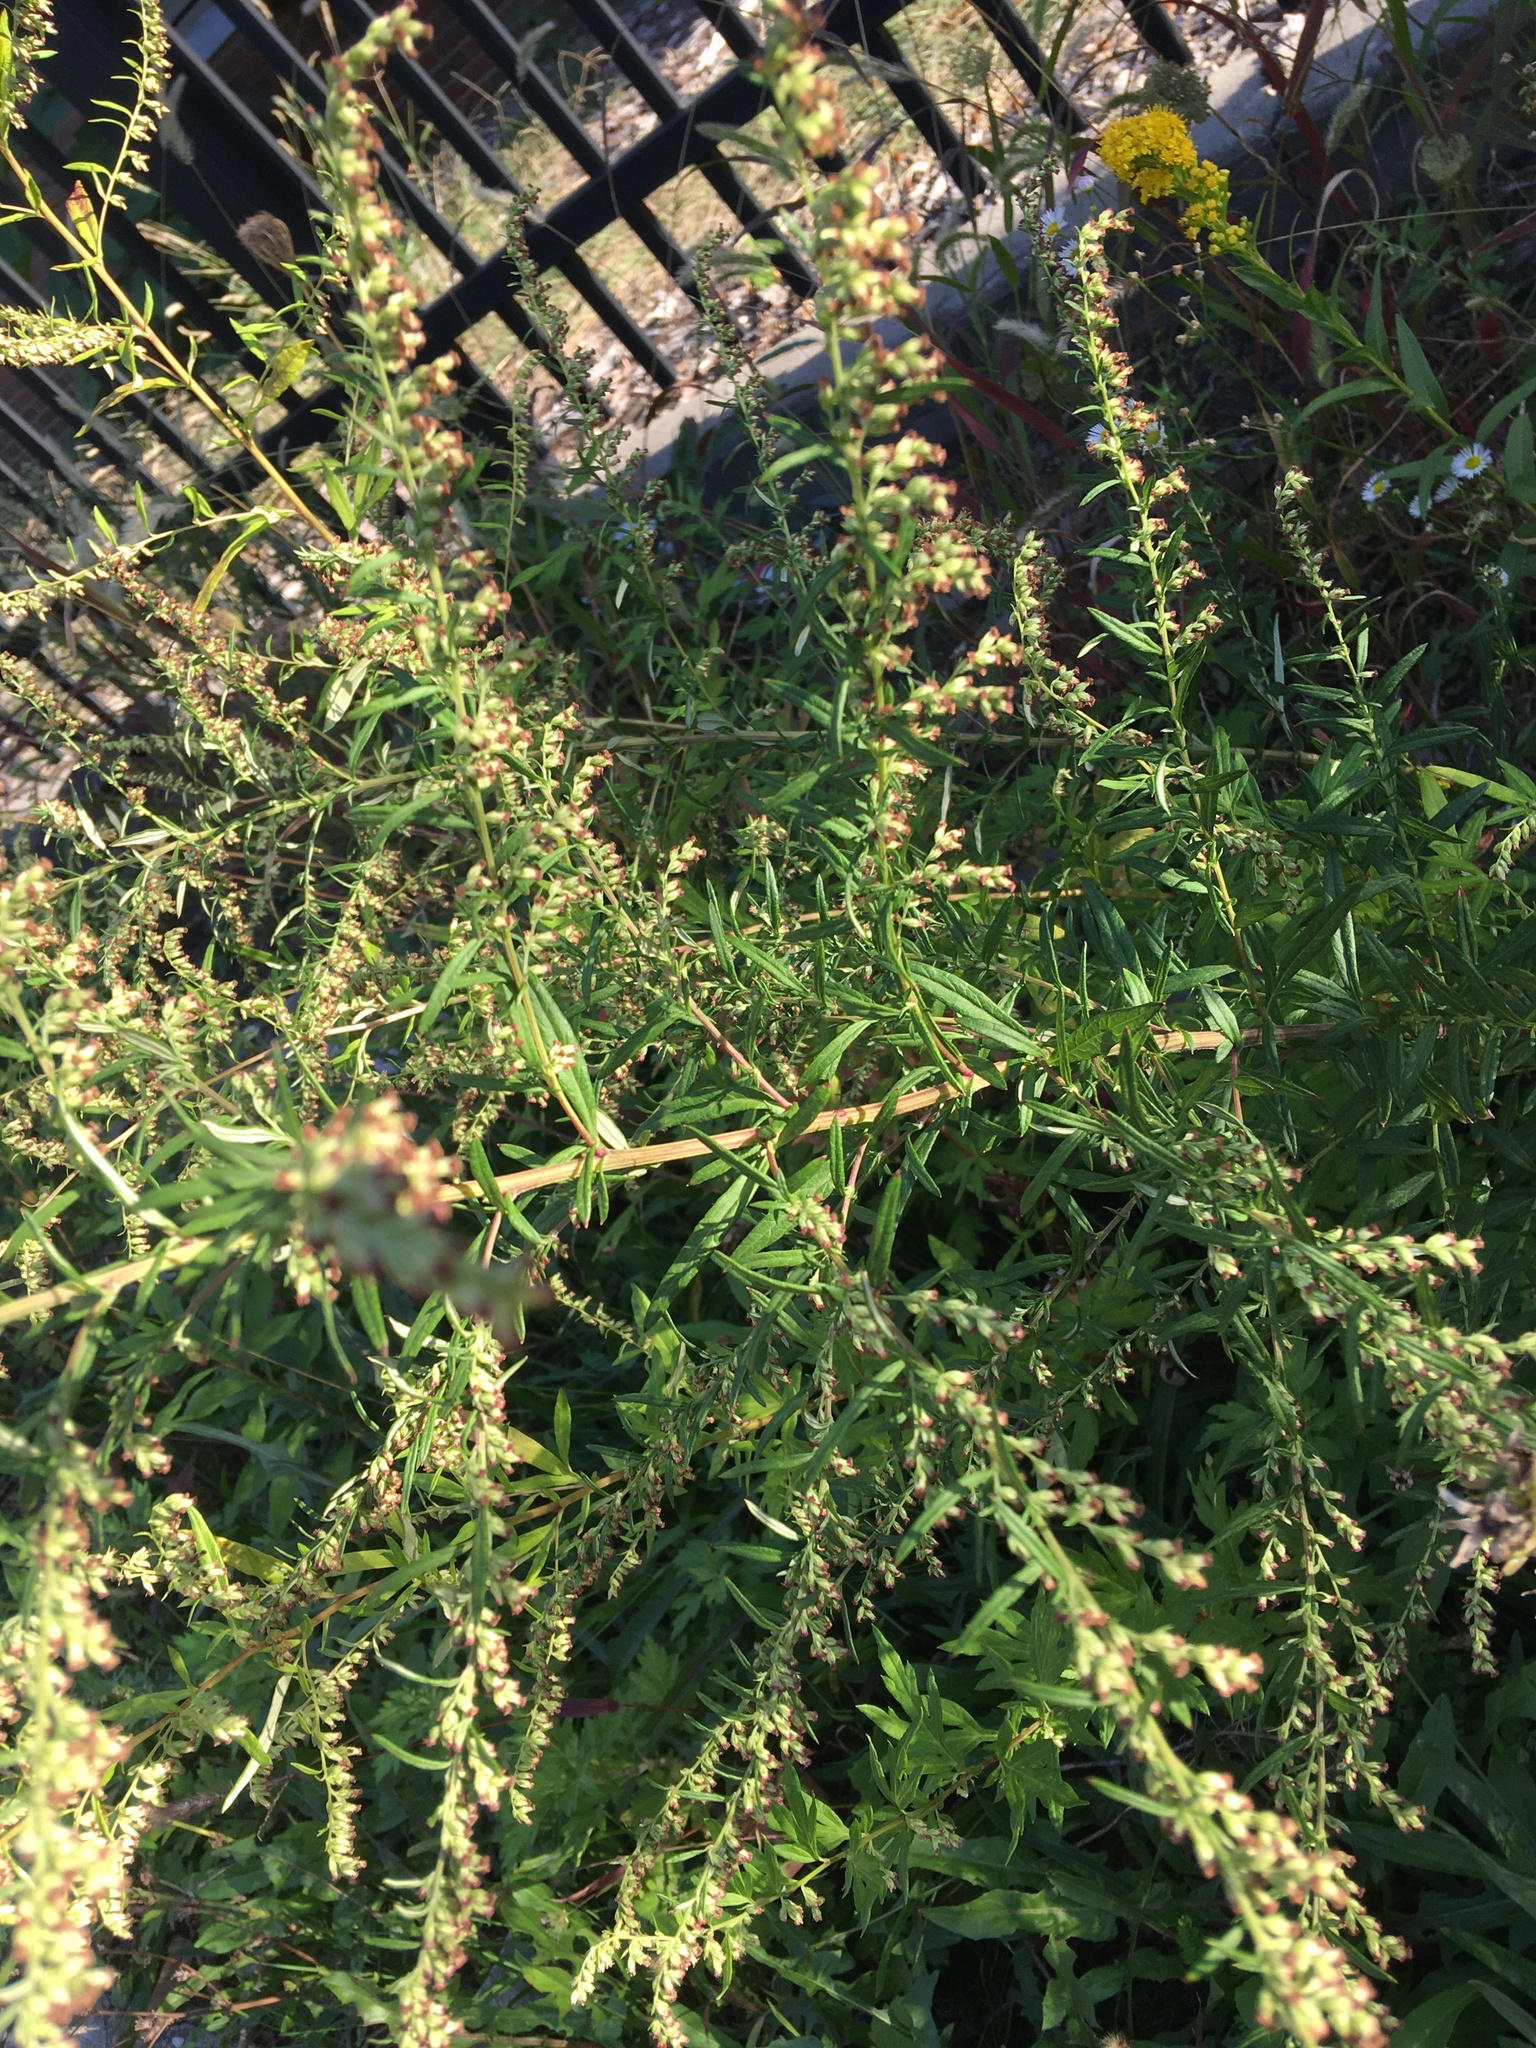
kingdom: Plantae
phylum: Tracheophyta
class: Magnoliopsida
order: Asterales
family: Asteraceae
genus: Artemisia
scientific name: Artemisia vulgaris
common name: Mugwort
